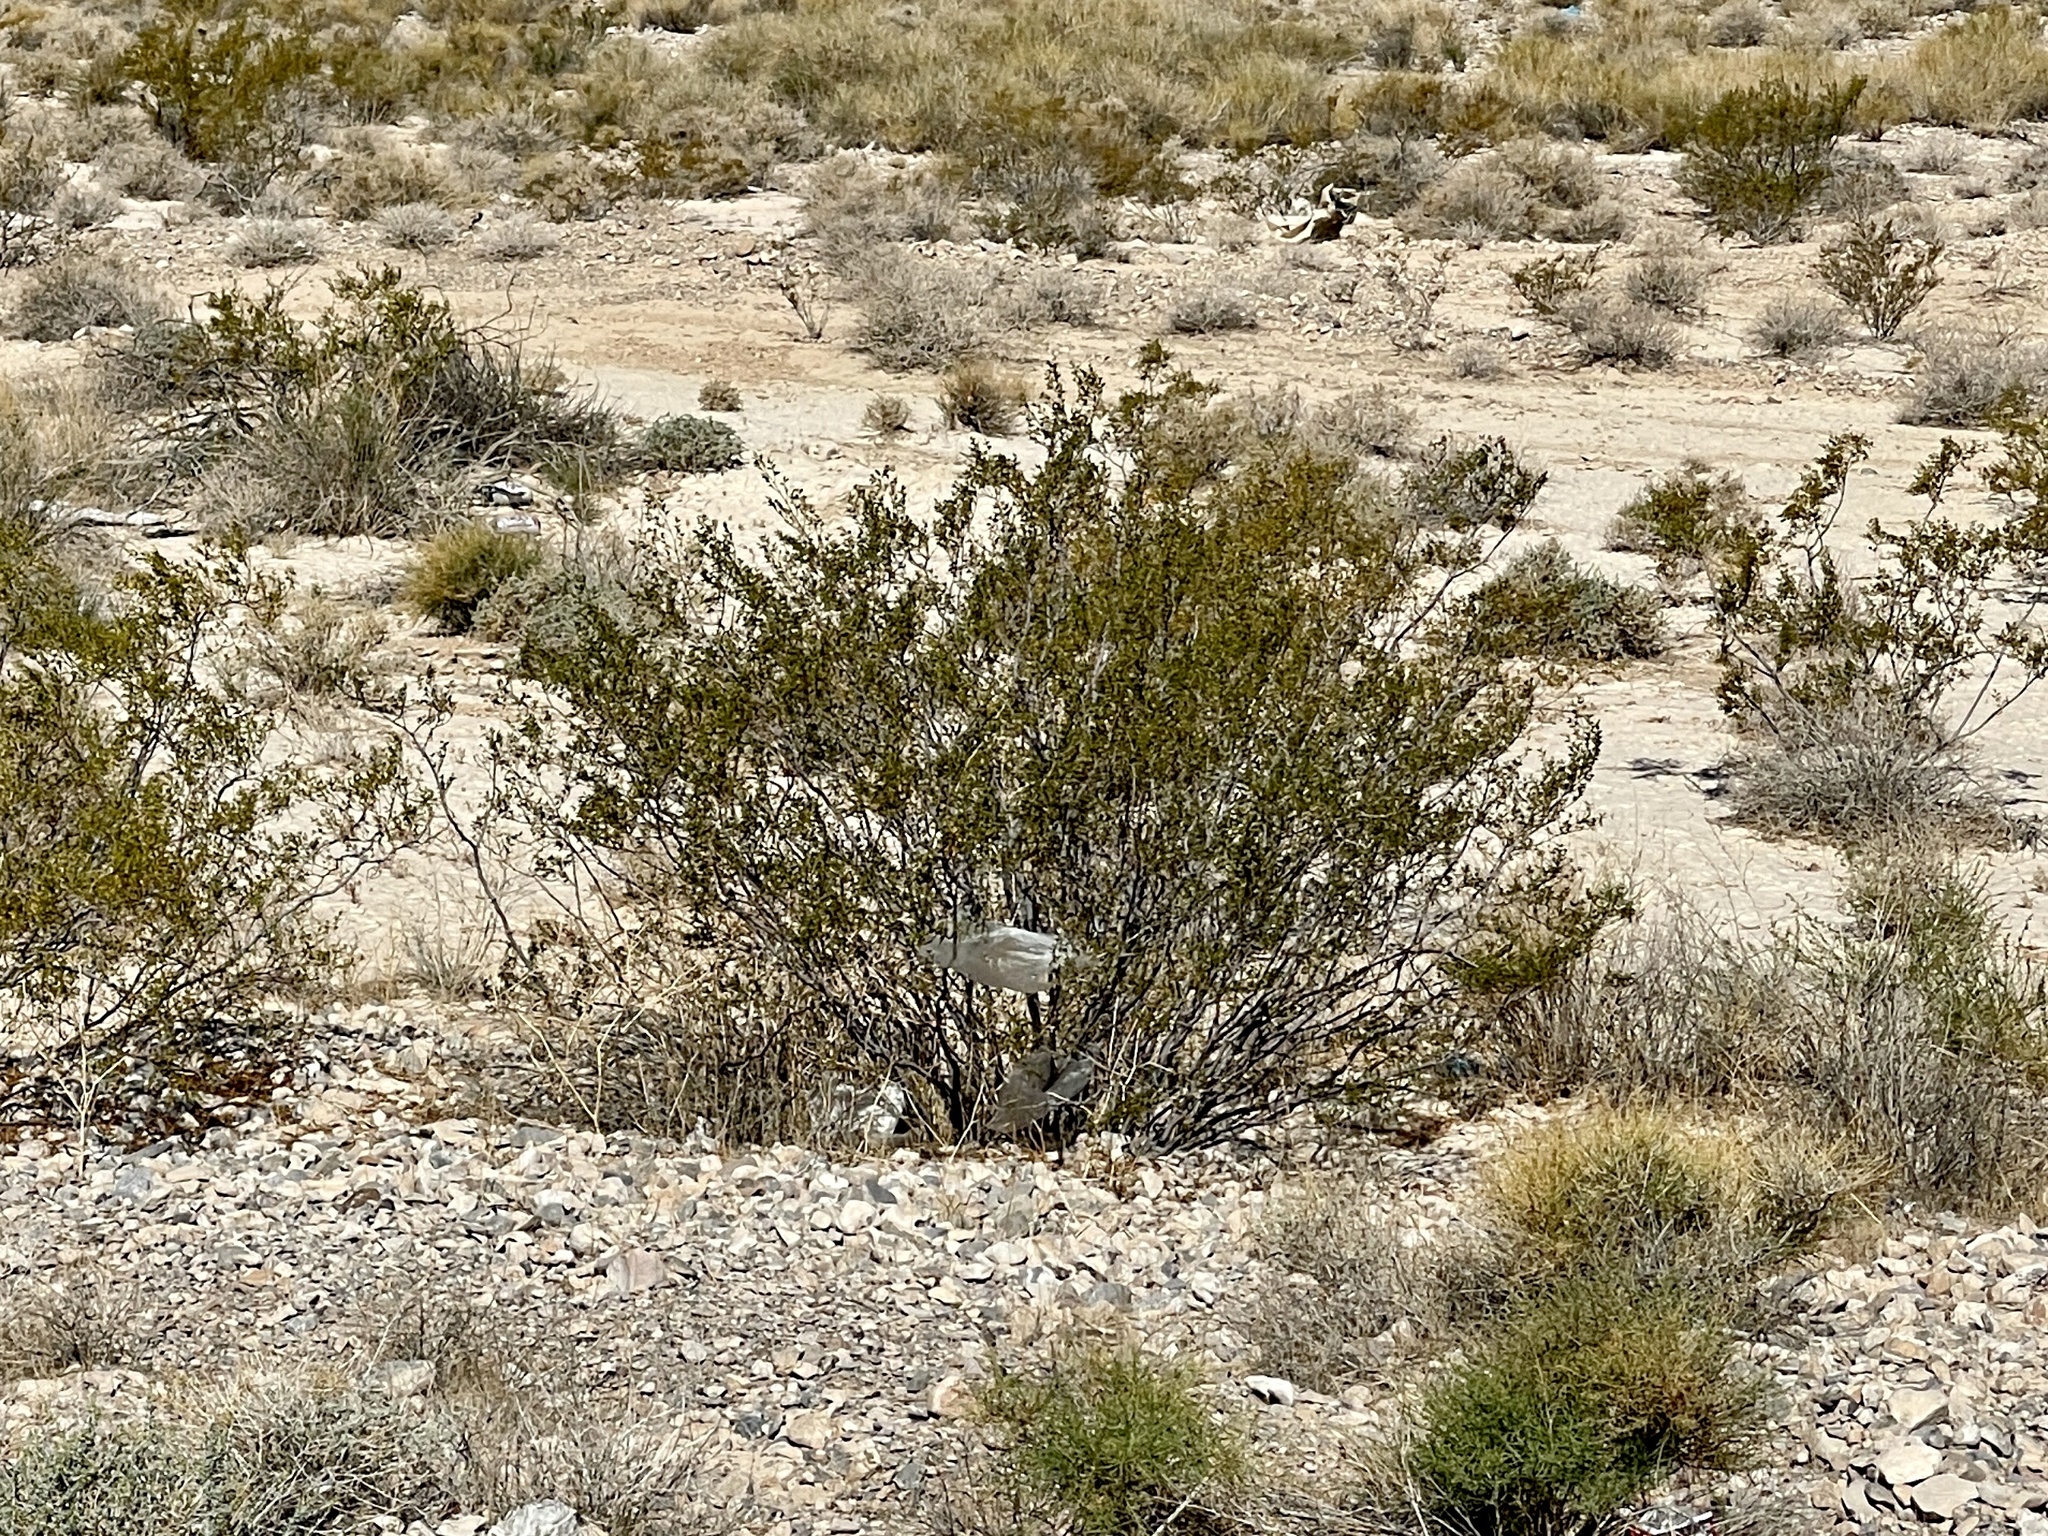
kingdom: Plantae
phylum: Tracheophyta
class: Magnoliopsida
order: Zygophyllales
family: Zygophyllaceae
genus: Larrea
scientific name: Larrea tridentata
